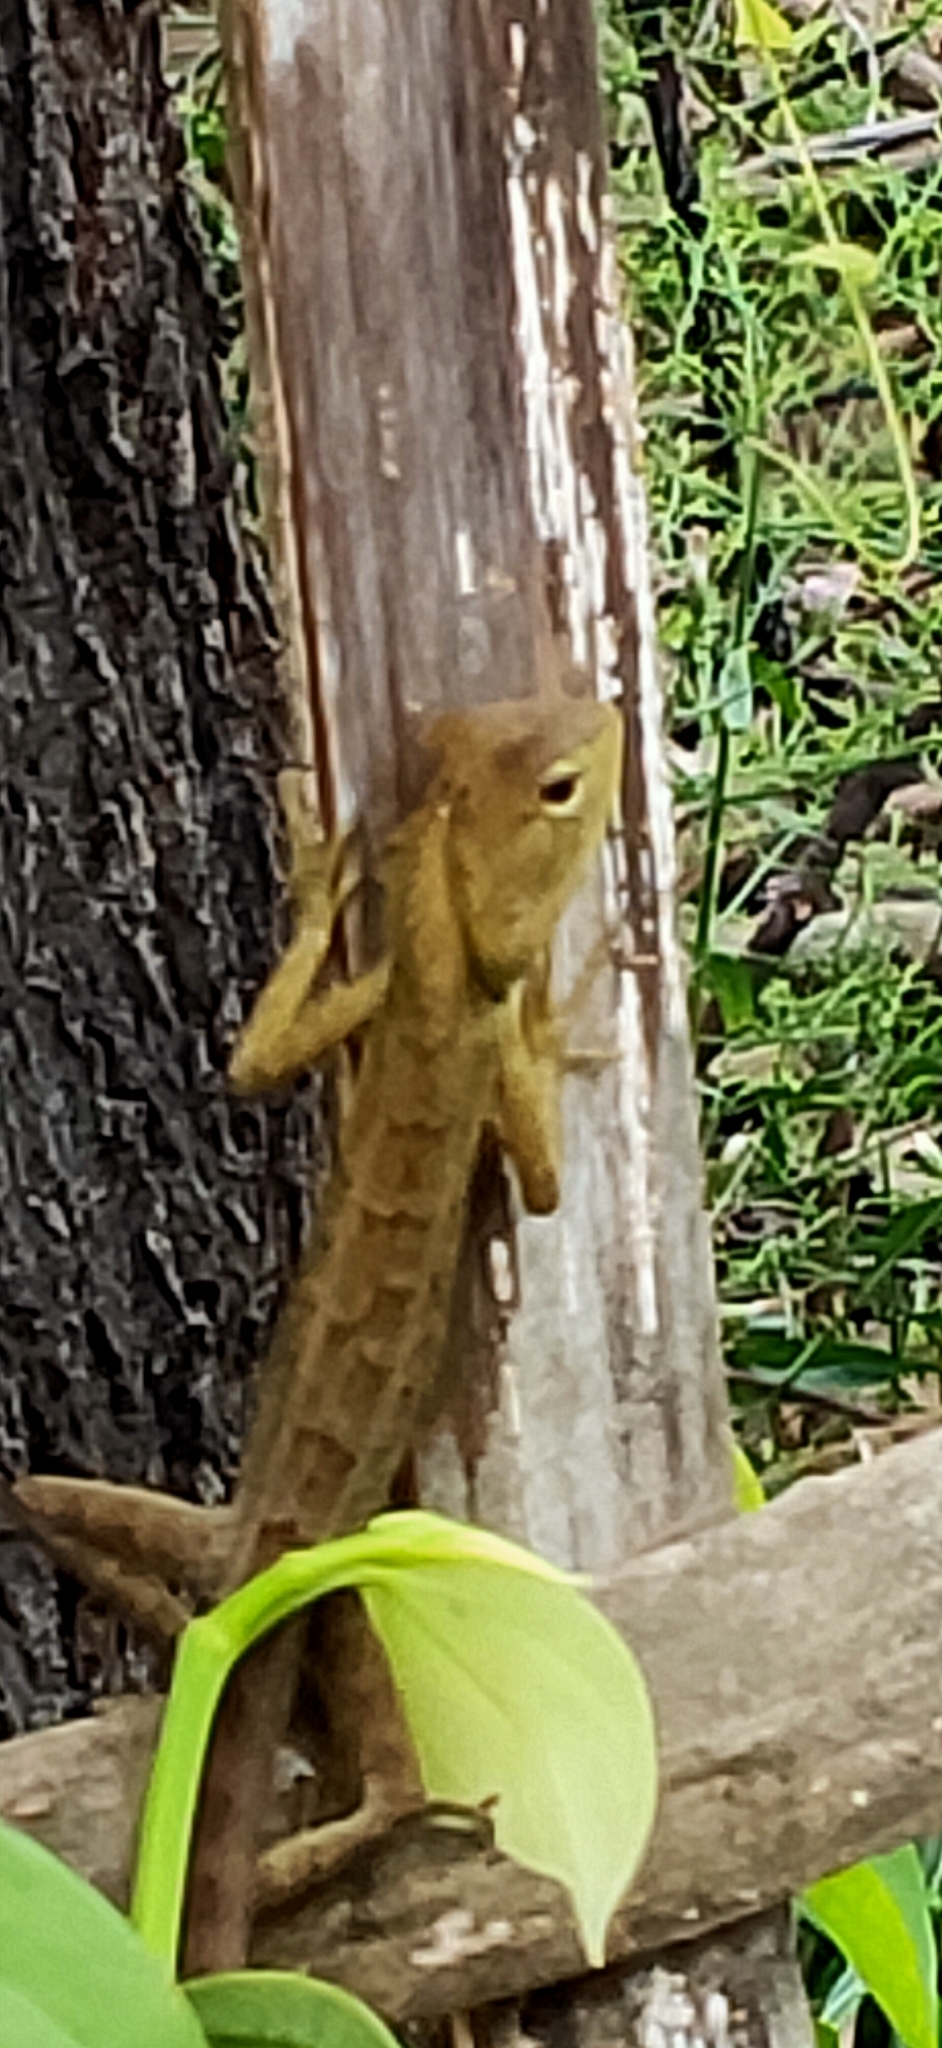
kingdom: Animalia
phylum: Chordata
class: Squamata
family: Agamidae
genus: Calotes
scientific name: Calotes versicolor
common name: Oriental garden lizard
